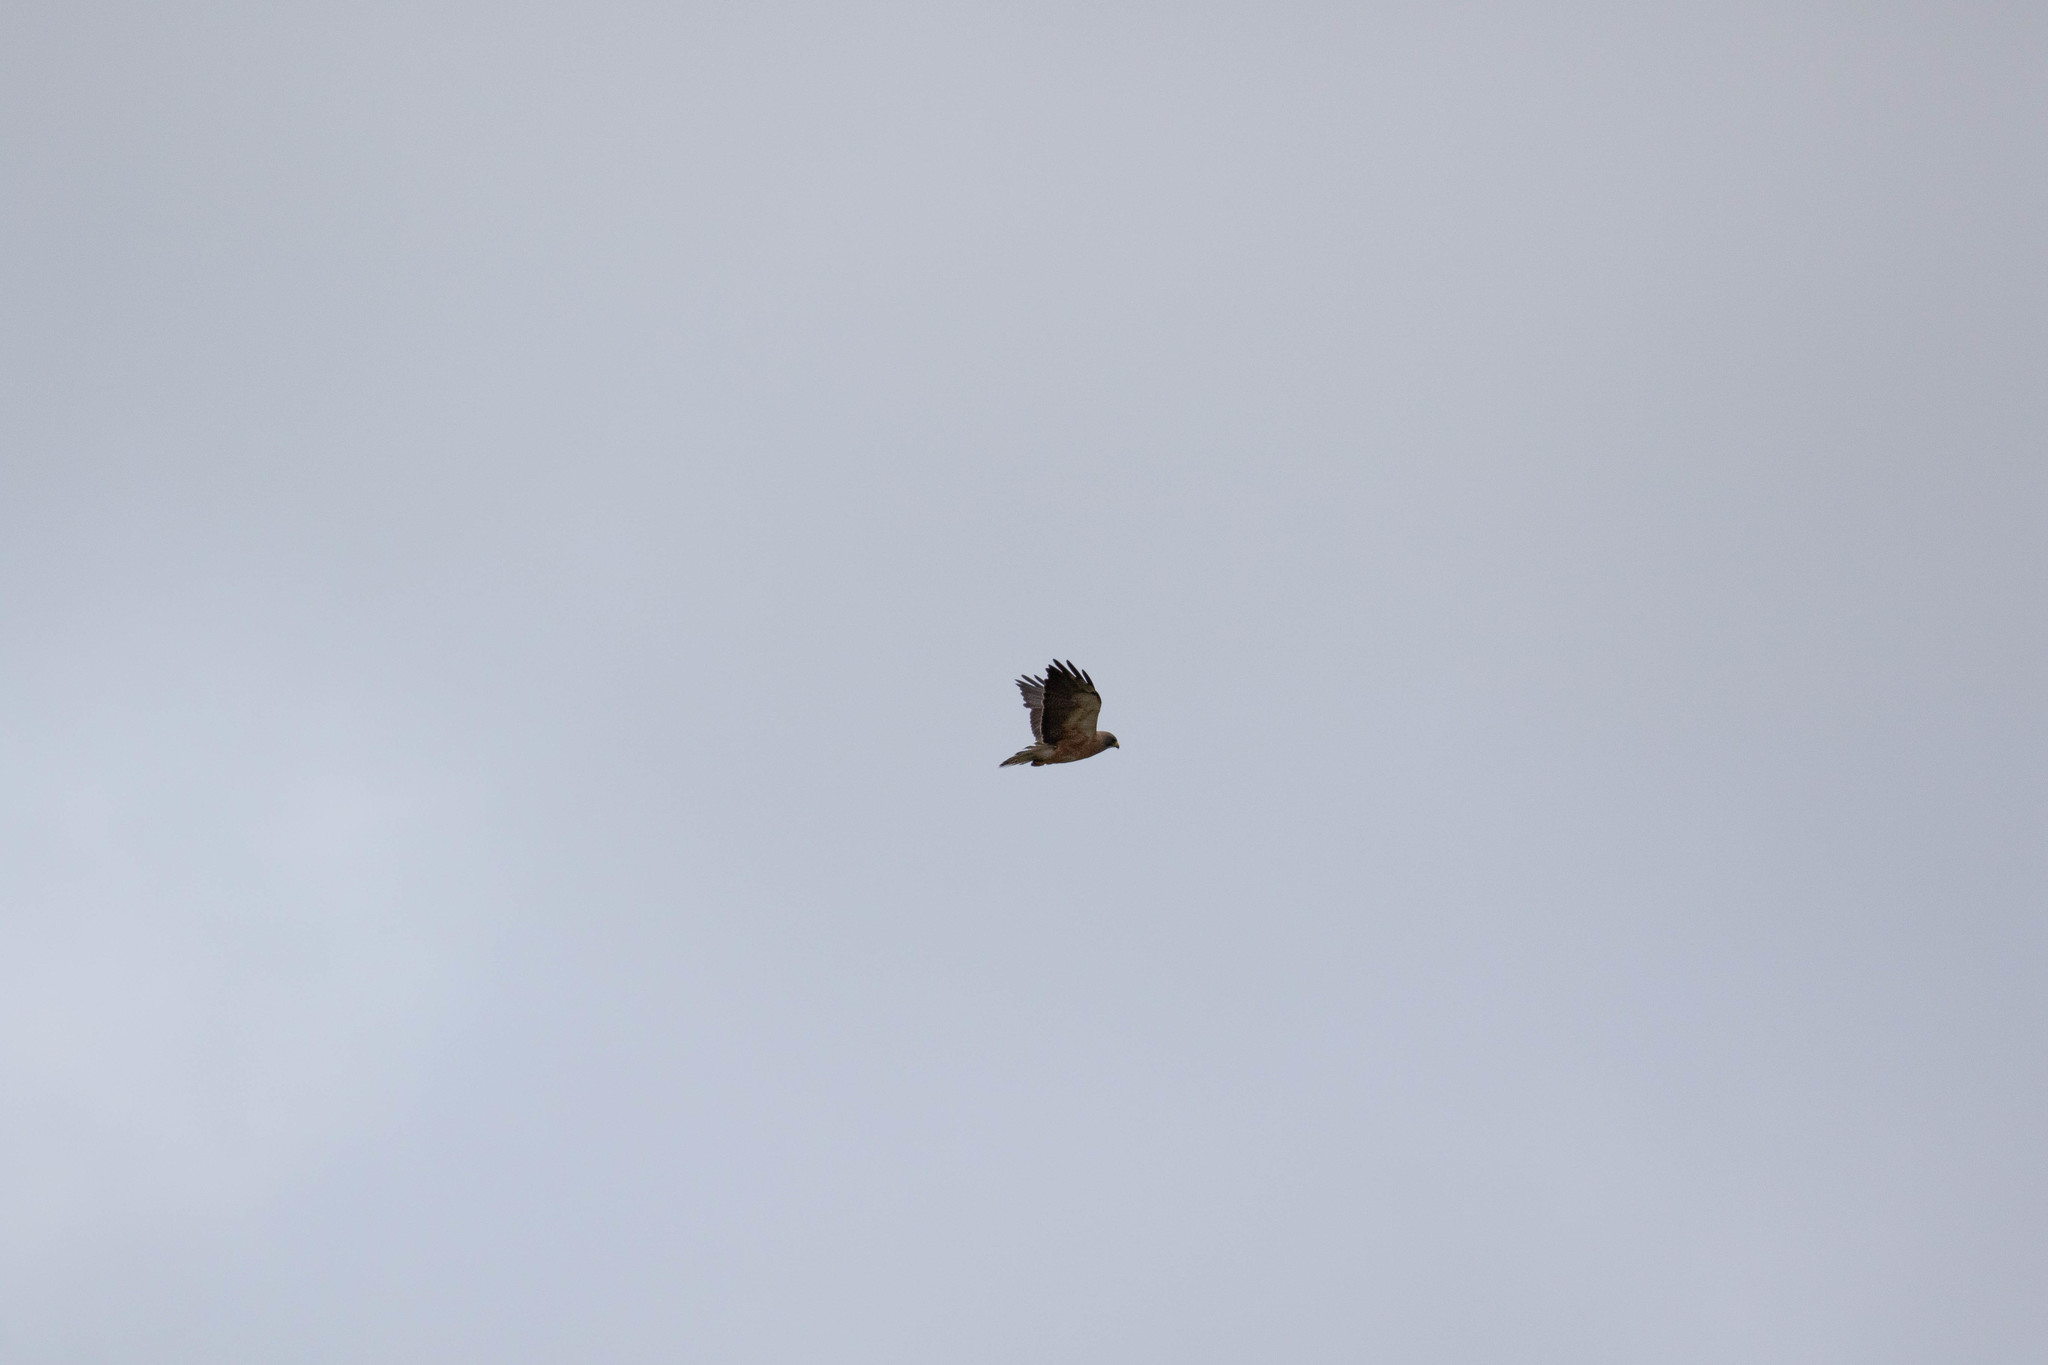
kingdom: Animalia
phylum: Chordata
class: Aves
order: Accipitriformes
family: Accipitridae
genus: Buteo
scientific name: Buteo swainsoni
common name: Swainson's hawk
